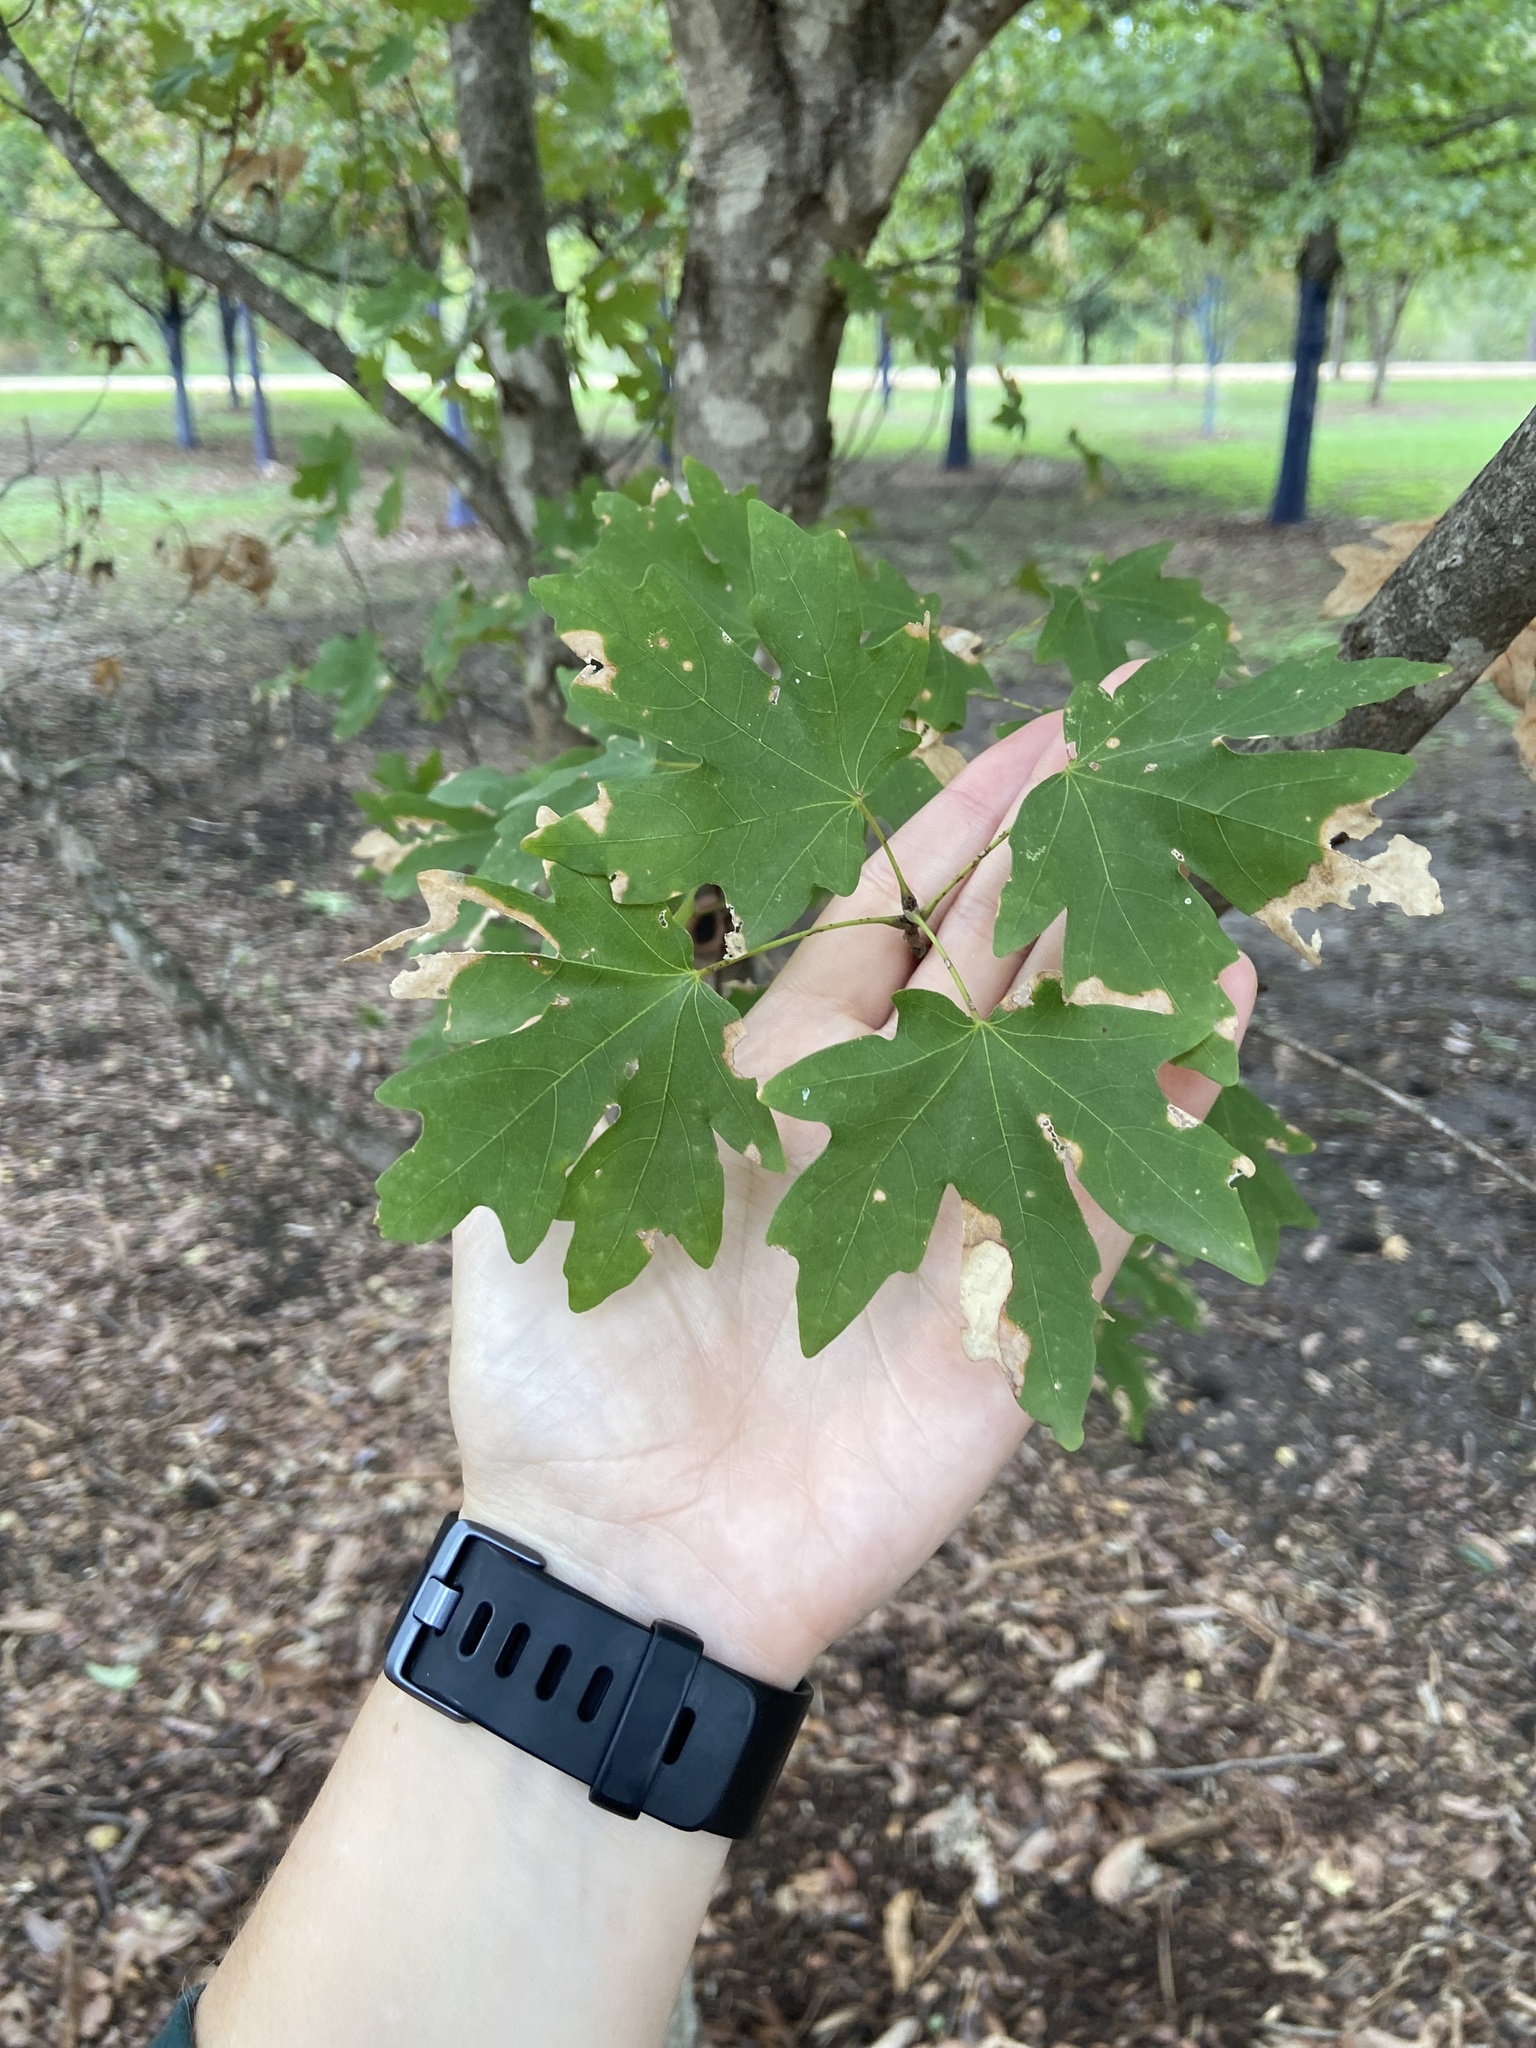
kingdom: Plantae
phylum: Tracheophyta
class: Magnoliopsida
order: Sapindales
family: Sapindaceae
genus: Acer
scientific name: Acer grandidentatum
